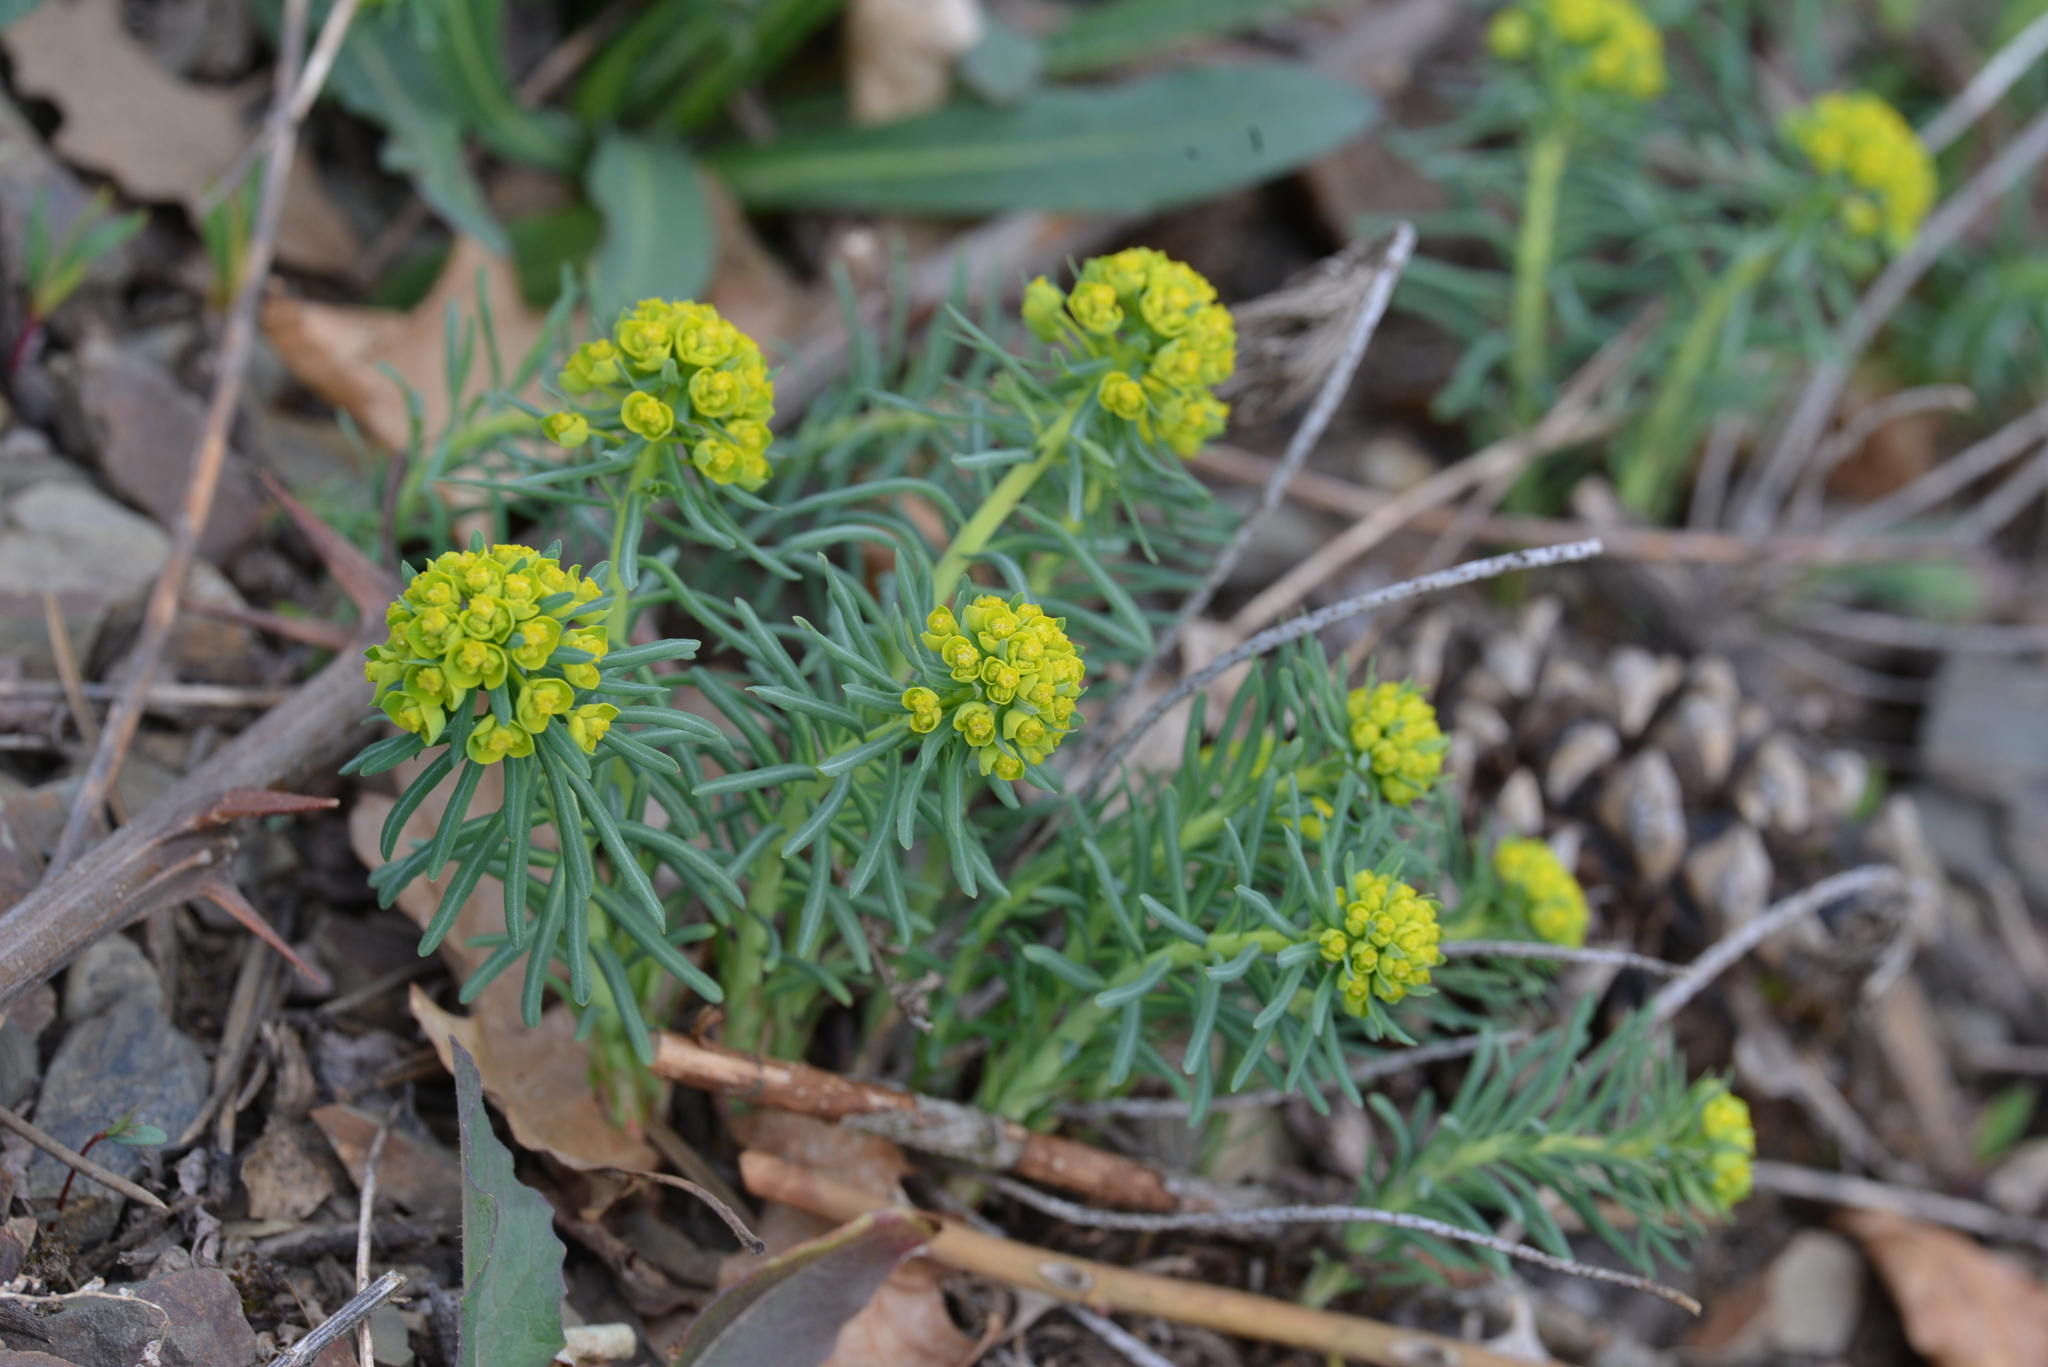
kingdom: Plantae
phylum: Tracheophyta
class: Magnoliopsida
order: Malpighiales
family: Euphorbiaceae
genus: Euphorbia
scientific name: Euphorbia cyparissias
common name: Cypress spurge
